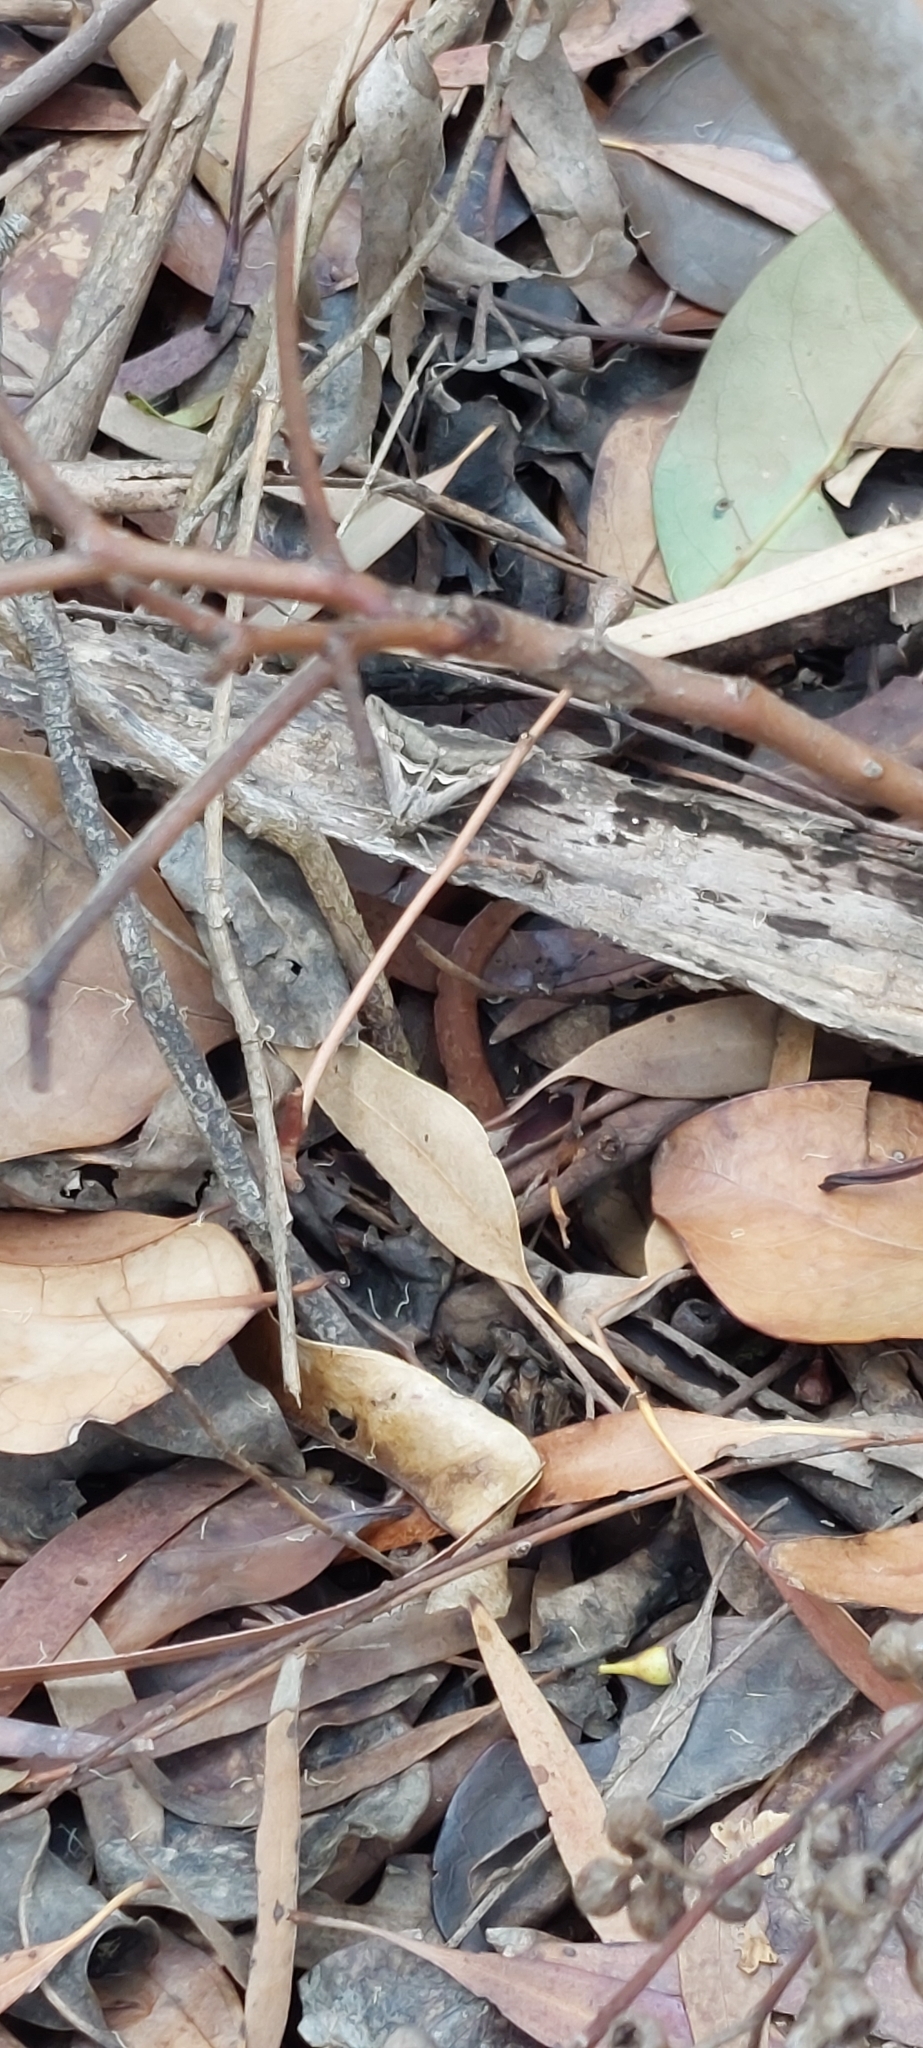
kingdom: Animalia
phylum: Arthropoda
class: Insecta
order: Lepidoptera
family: Erebidae
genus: Melipotis
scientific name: Melipotis cellaris
